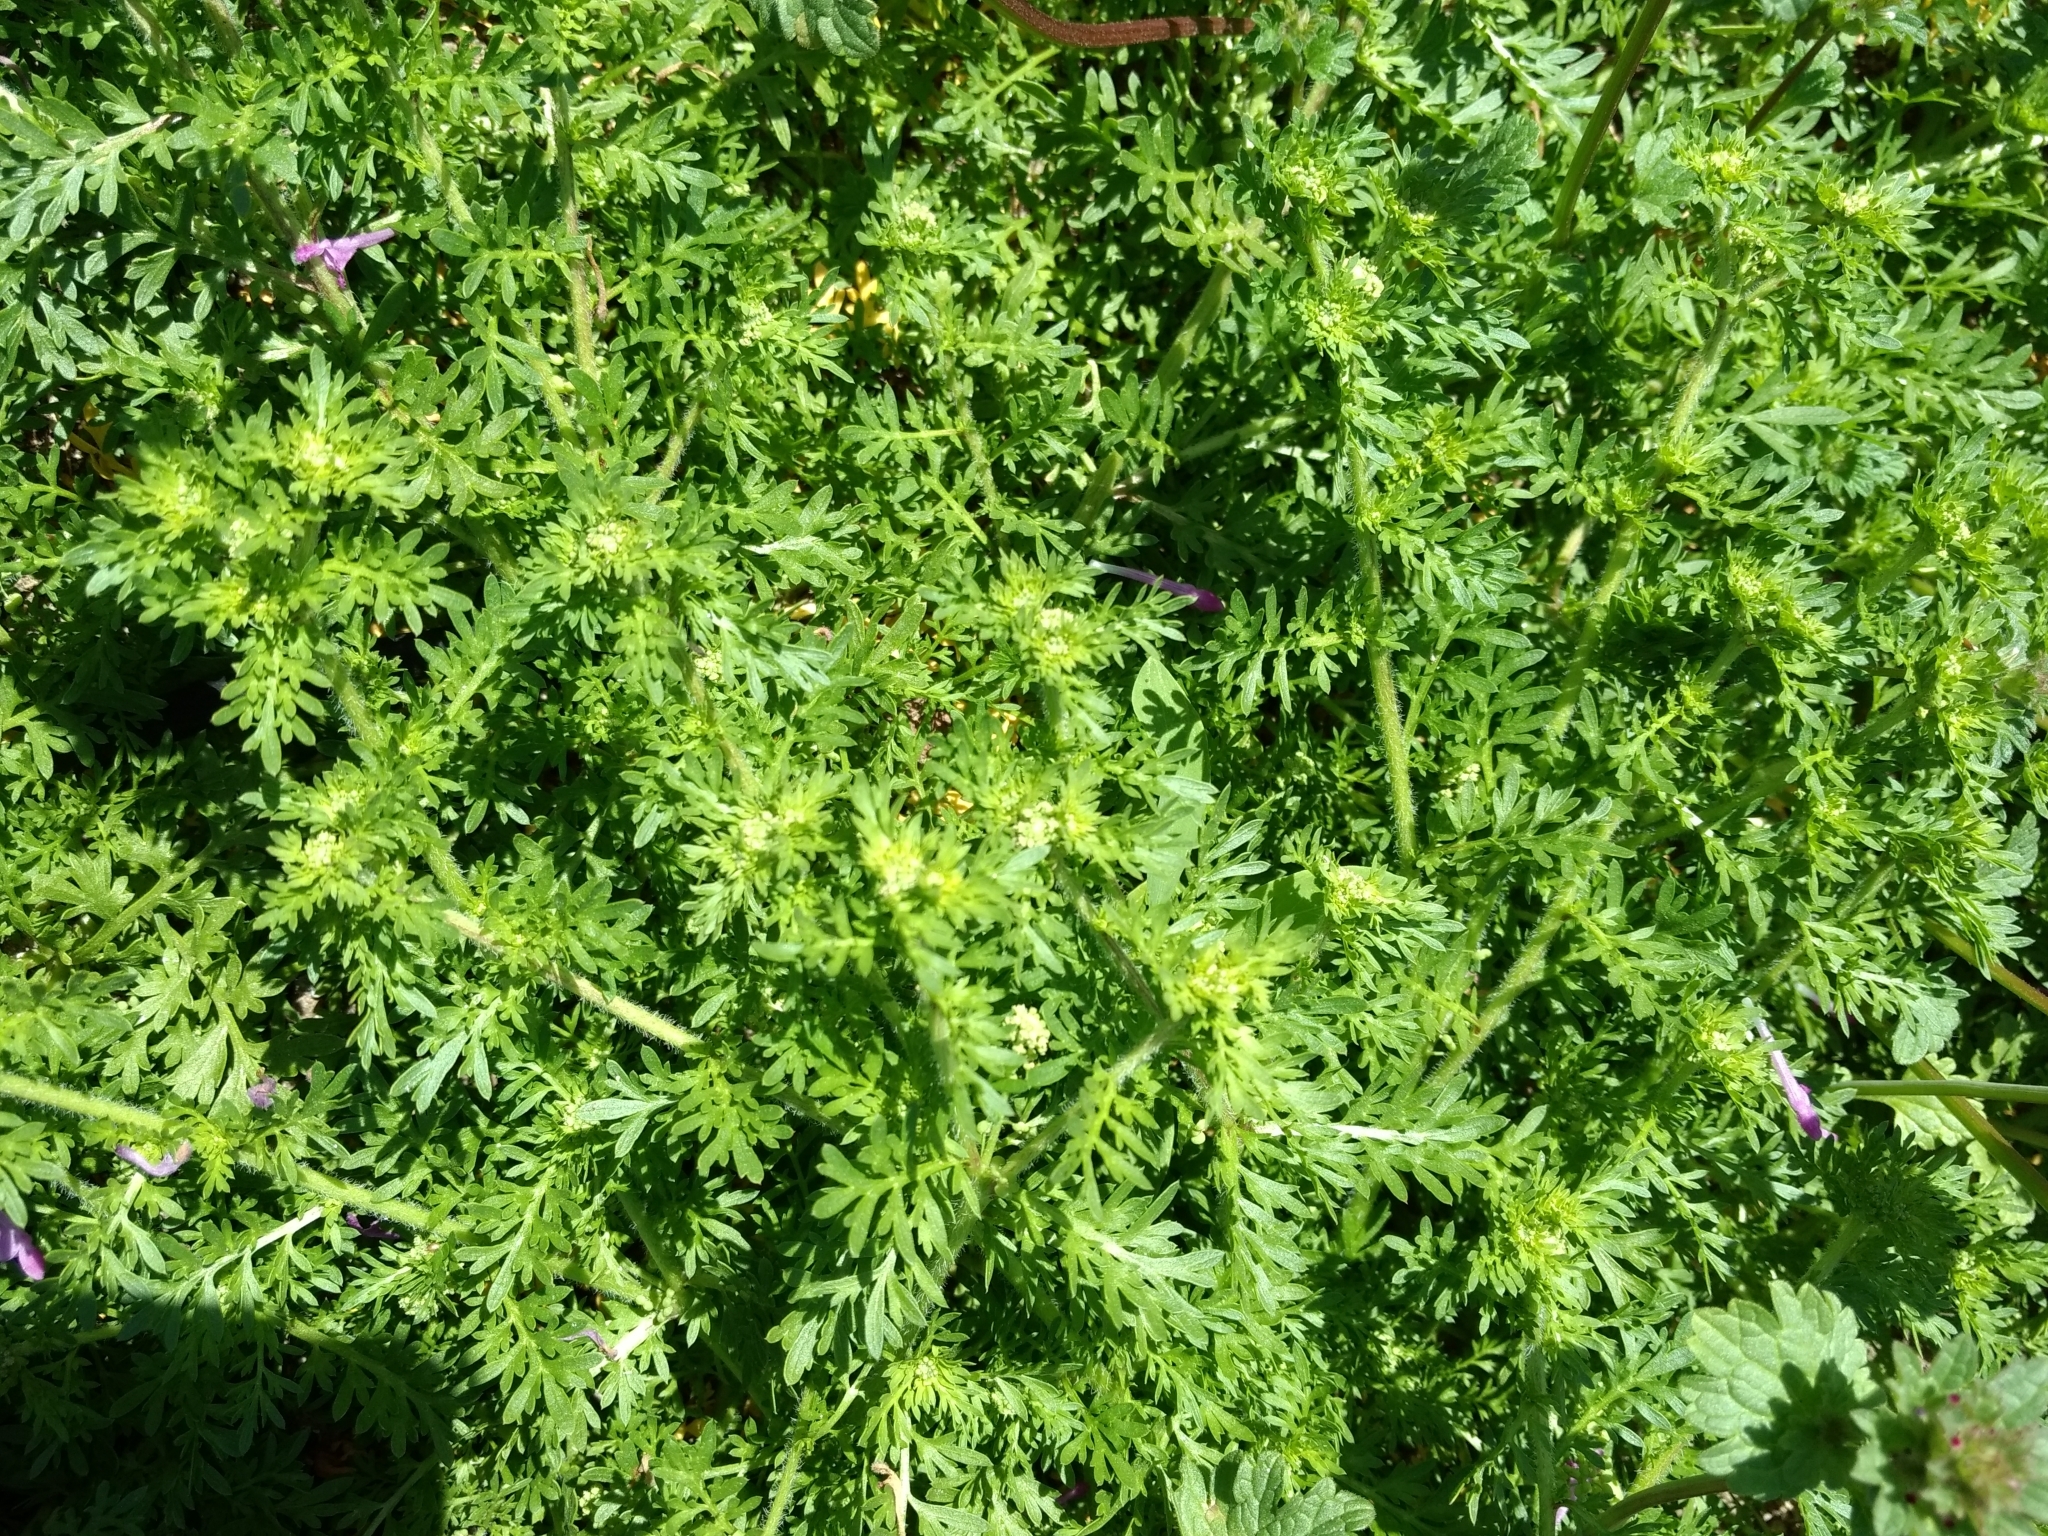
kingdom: Plantae
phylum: Tracheophyta
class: Magnoliopsida
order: Brassicales
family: Brassicaceae
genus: Lepidium
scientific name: Lepidium didymum
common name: Lesser swinecress
